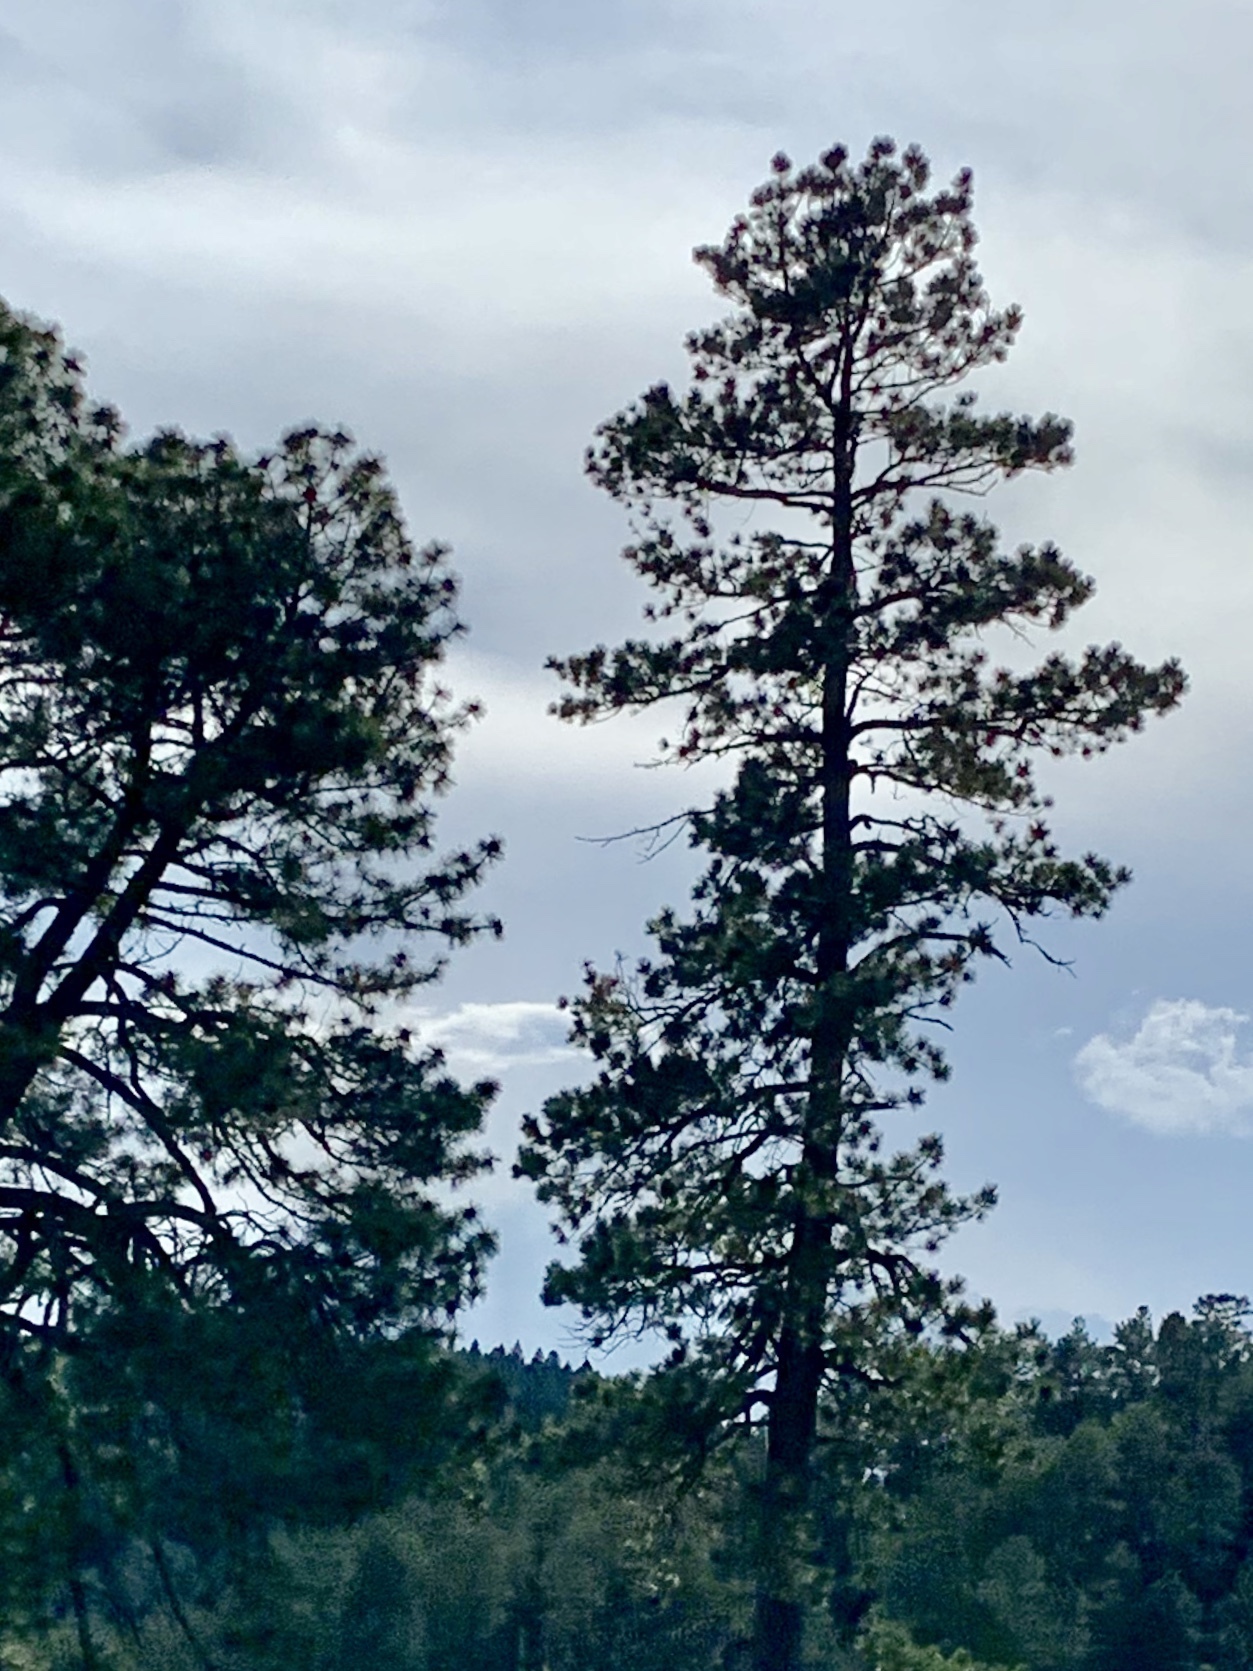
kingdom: Plantae
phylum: Tracheophyta
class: Pinopsida
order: Pinales
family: Pinaceae
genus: Pinus
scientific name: Pinus ponderosa
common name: Western yellow-pine
